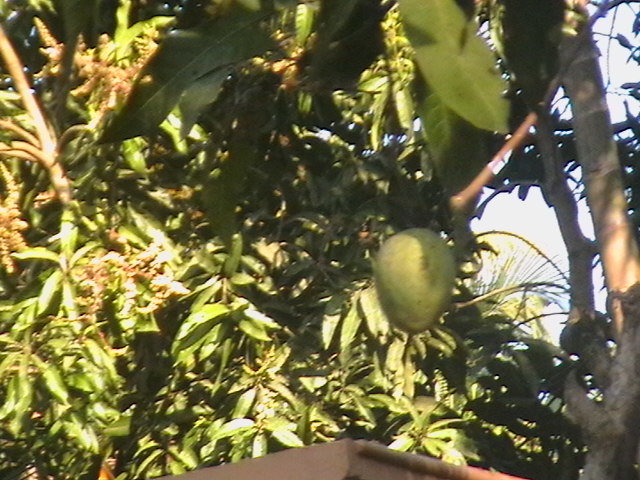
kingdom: Plantae
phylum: Tracheophyta
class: Magnoliopsida
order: Sapindales
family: Anacardiaceae
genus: Mangifera
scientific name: Mangifera indica
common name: Mango
